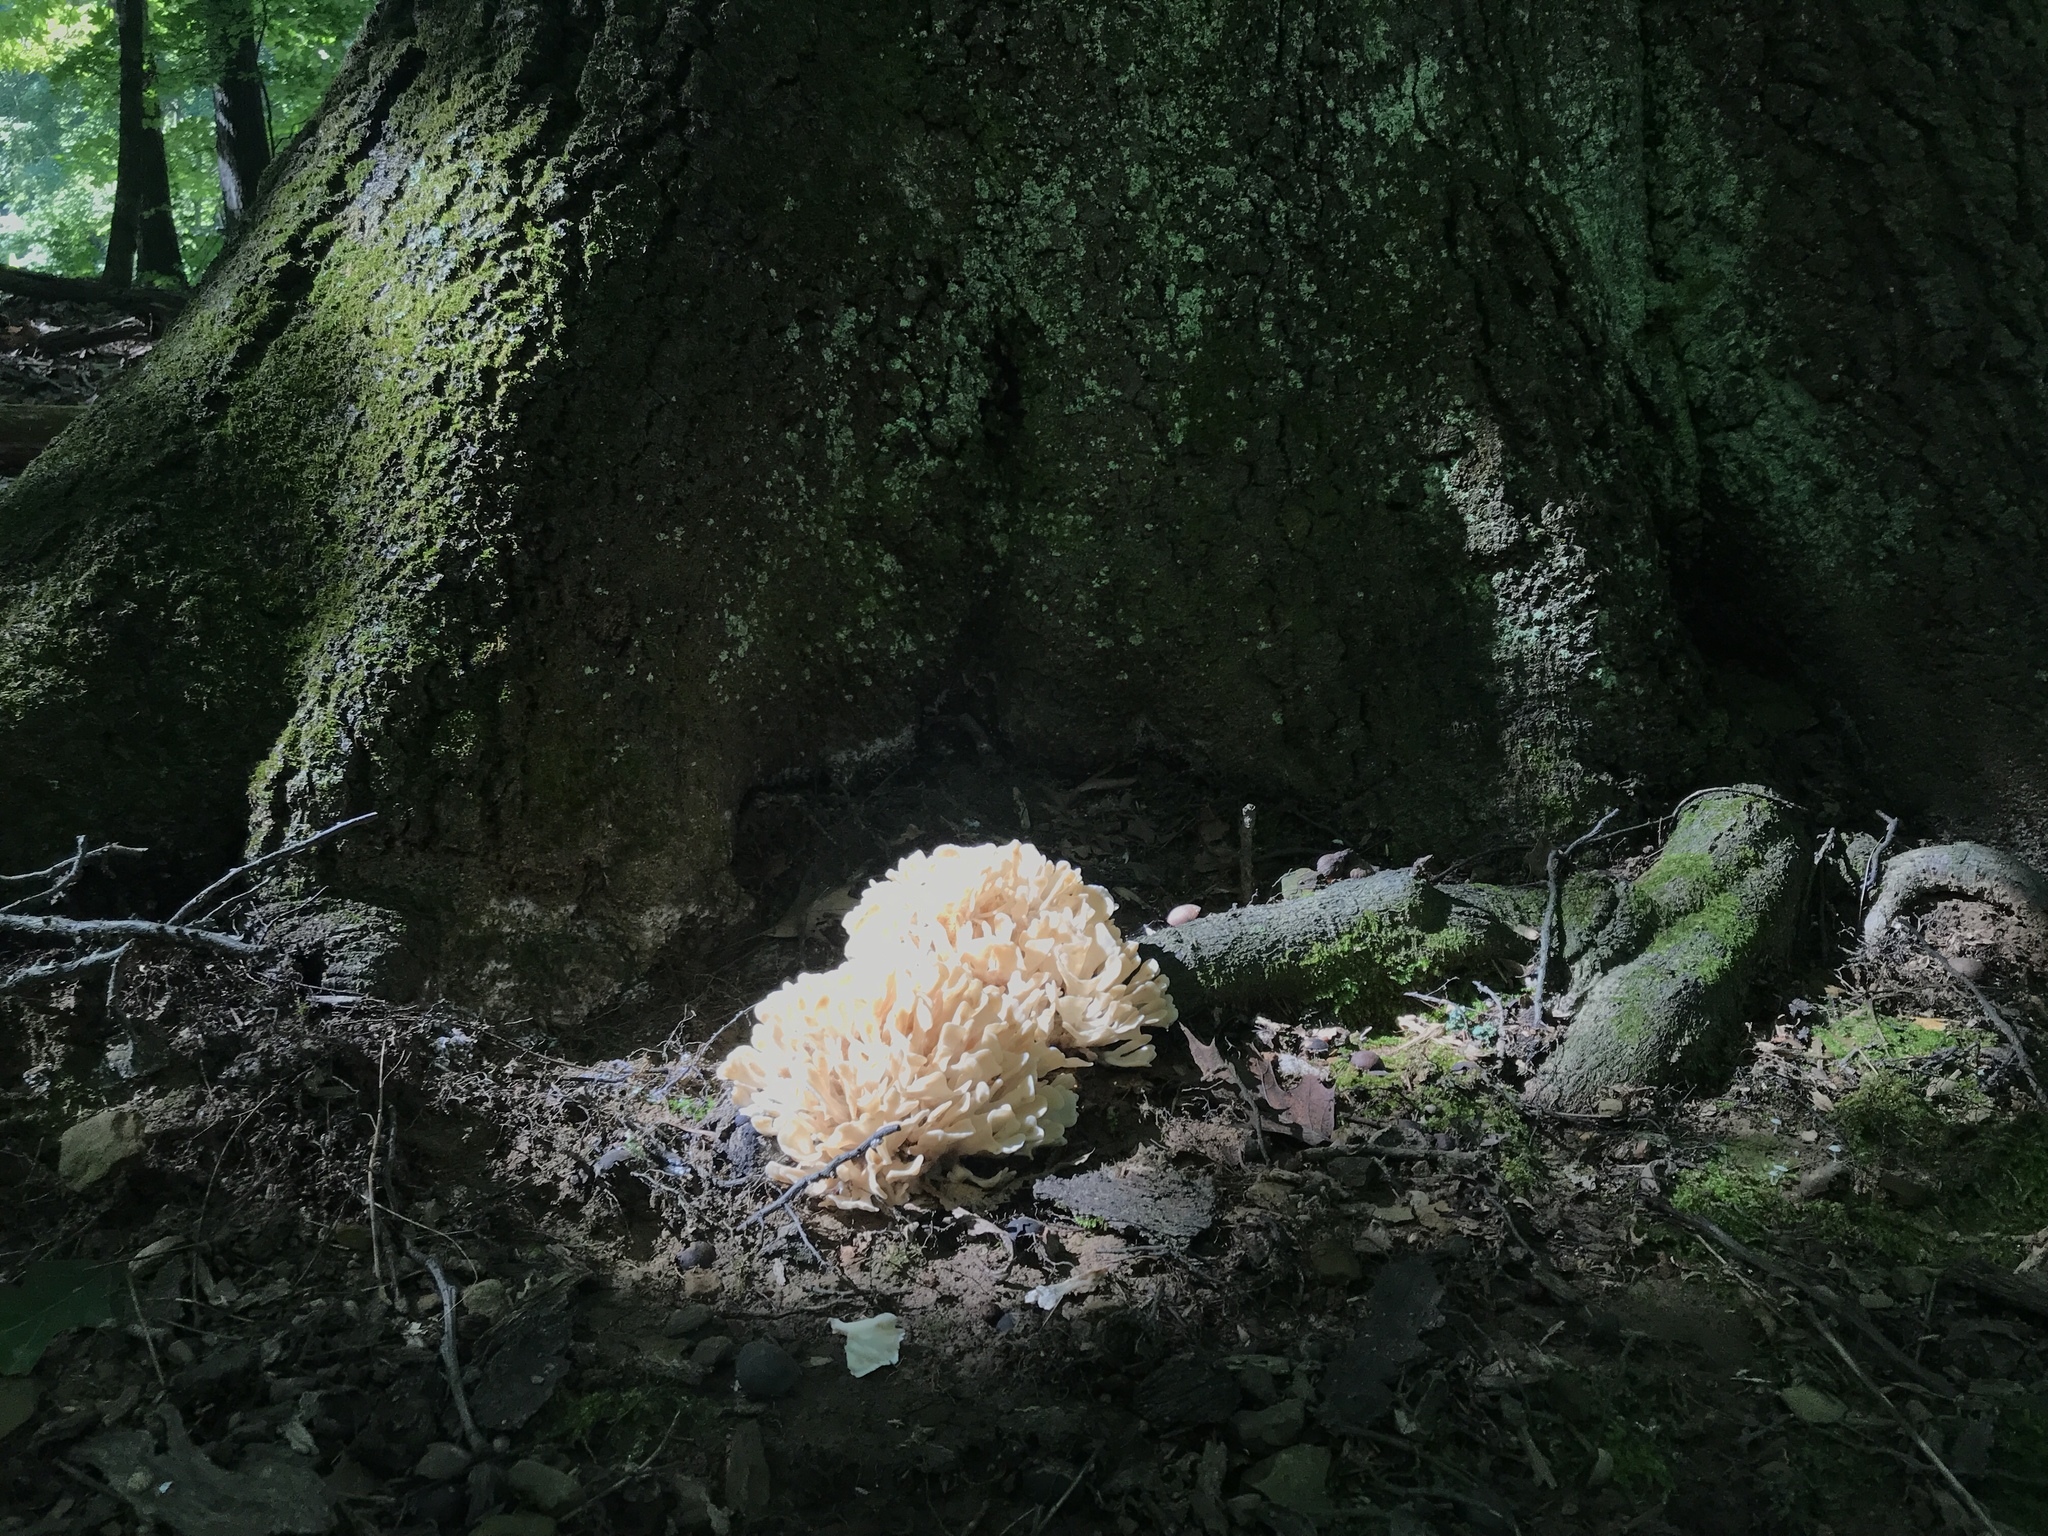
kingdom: Fungi
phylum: Basidiomycota
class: Agaricomycetes
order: Polyporales
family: Sparassidaceae
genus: Sparassis
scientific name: Sparassis spathulata
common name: Eastern cauliflower mushroom
